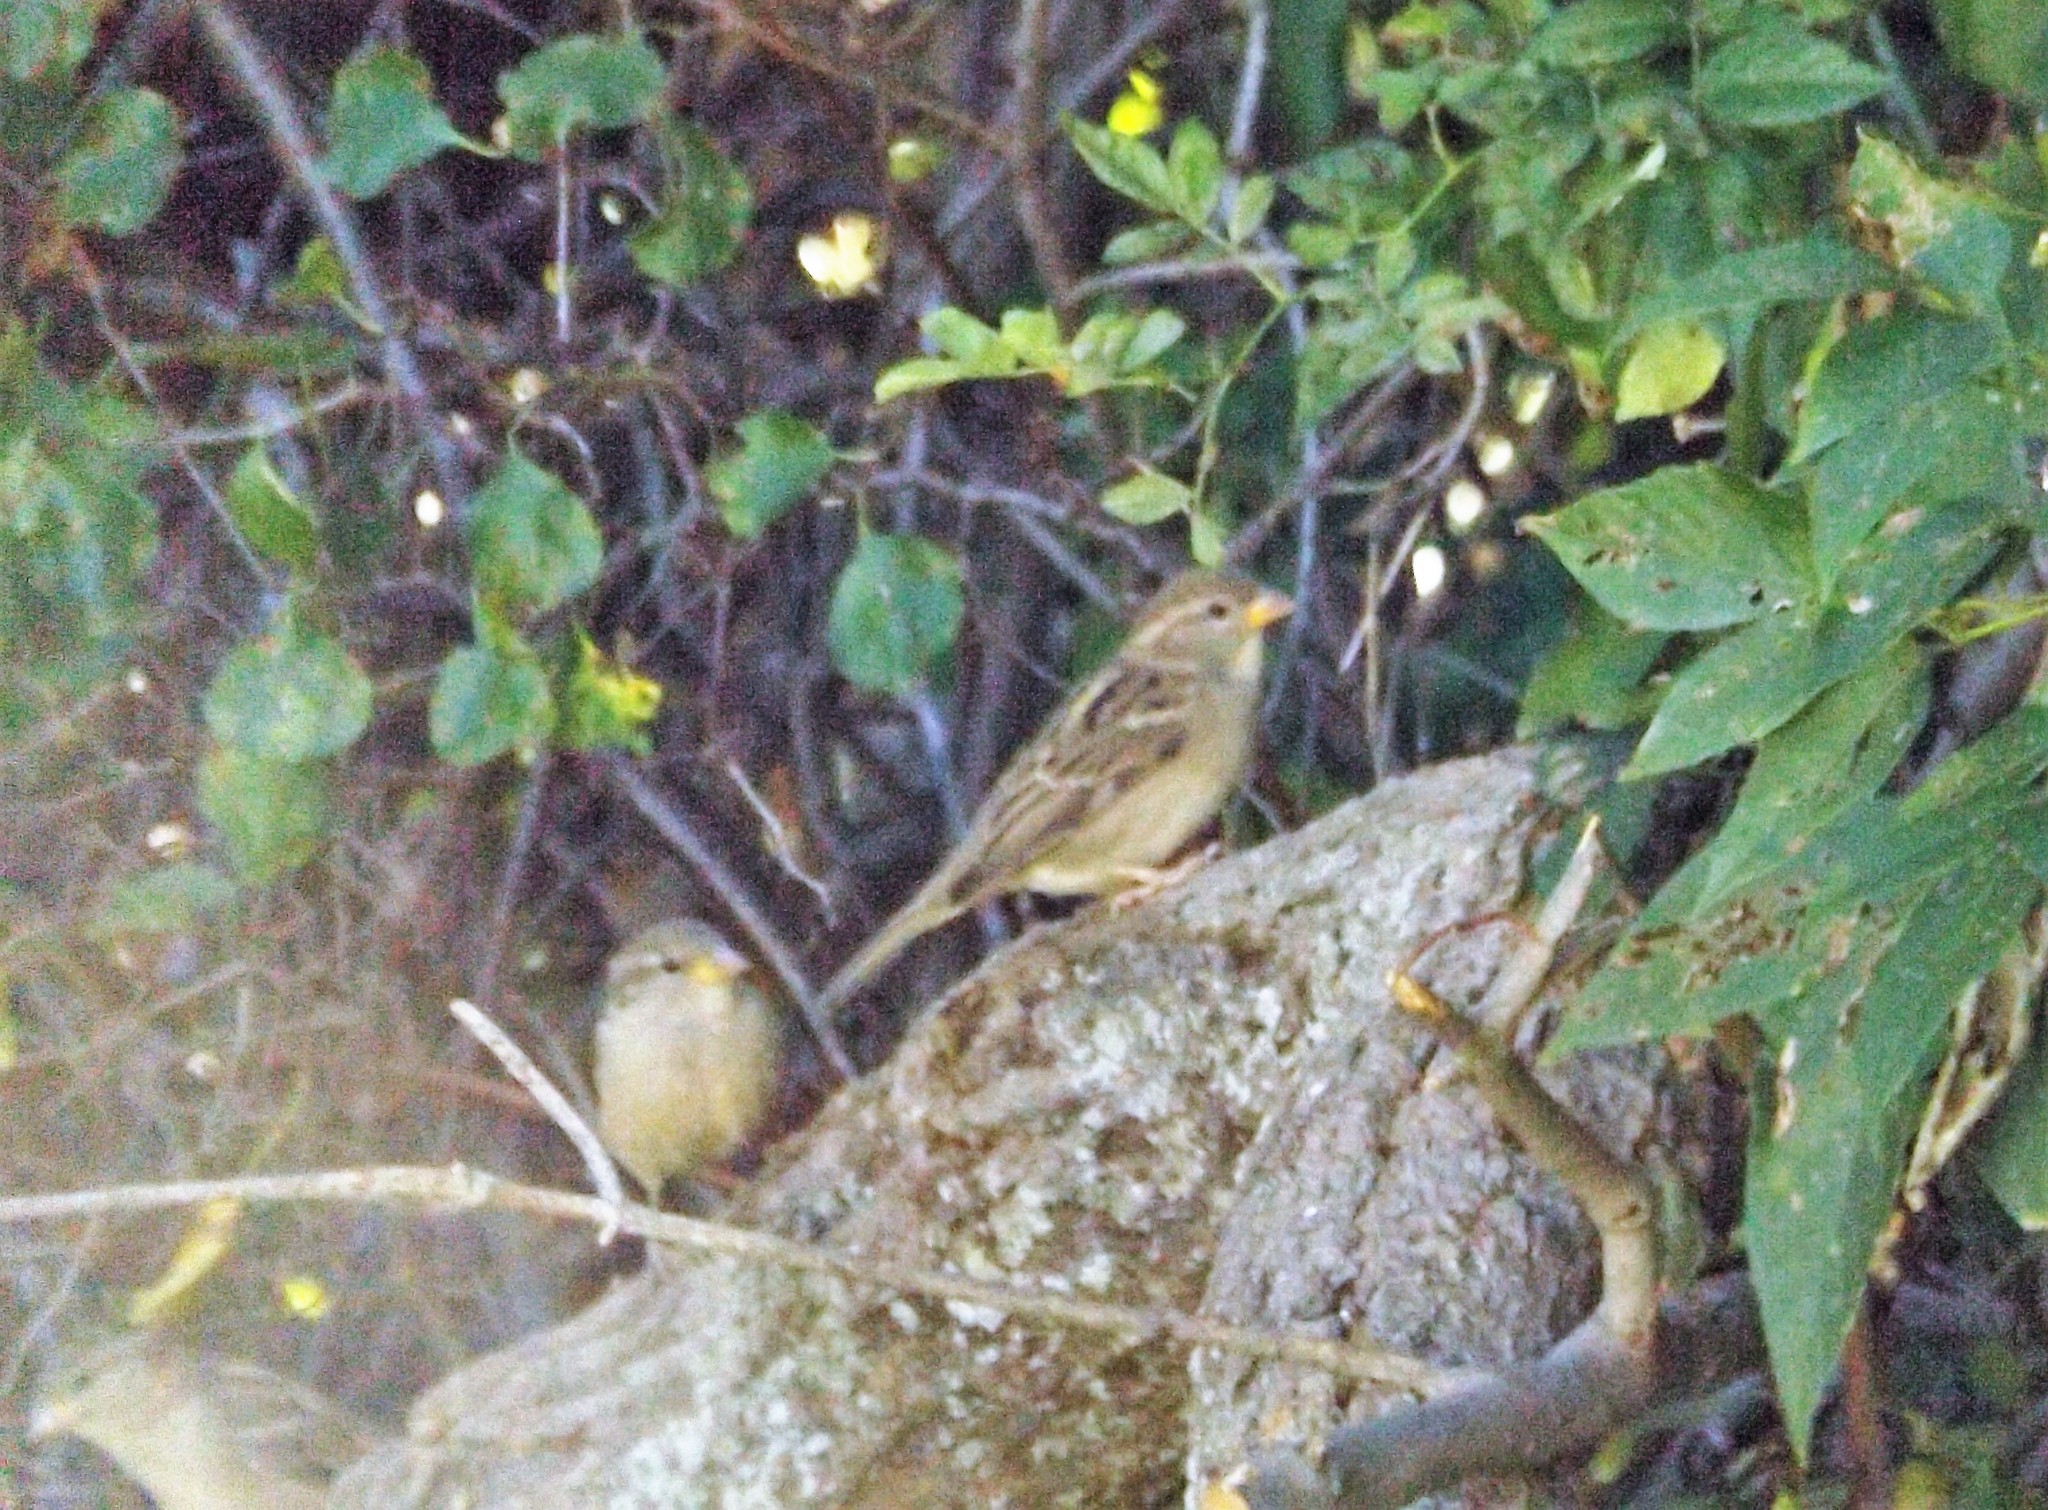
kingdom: Animalia
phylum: Chordata
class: Aves
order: Passeriformes
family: Passeridae
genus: Passer
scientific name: Passer domesticus
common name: House sparrow
